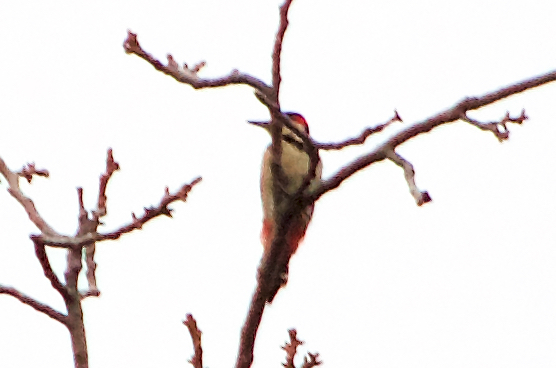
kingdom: Animalia
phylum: Chordata
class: Aves
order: Piciformes
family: Picidae
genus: Dendrocopos
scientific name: Dendrocopos syriacus
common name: Syrian woodpecker
